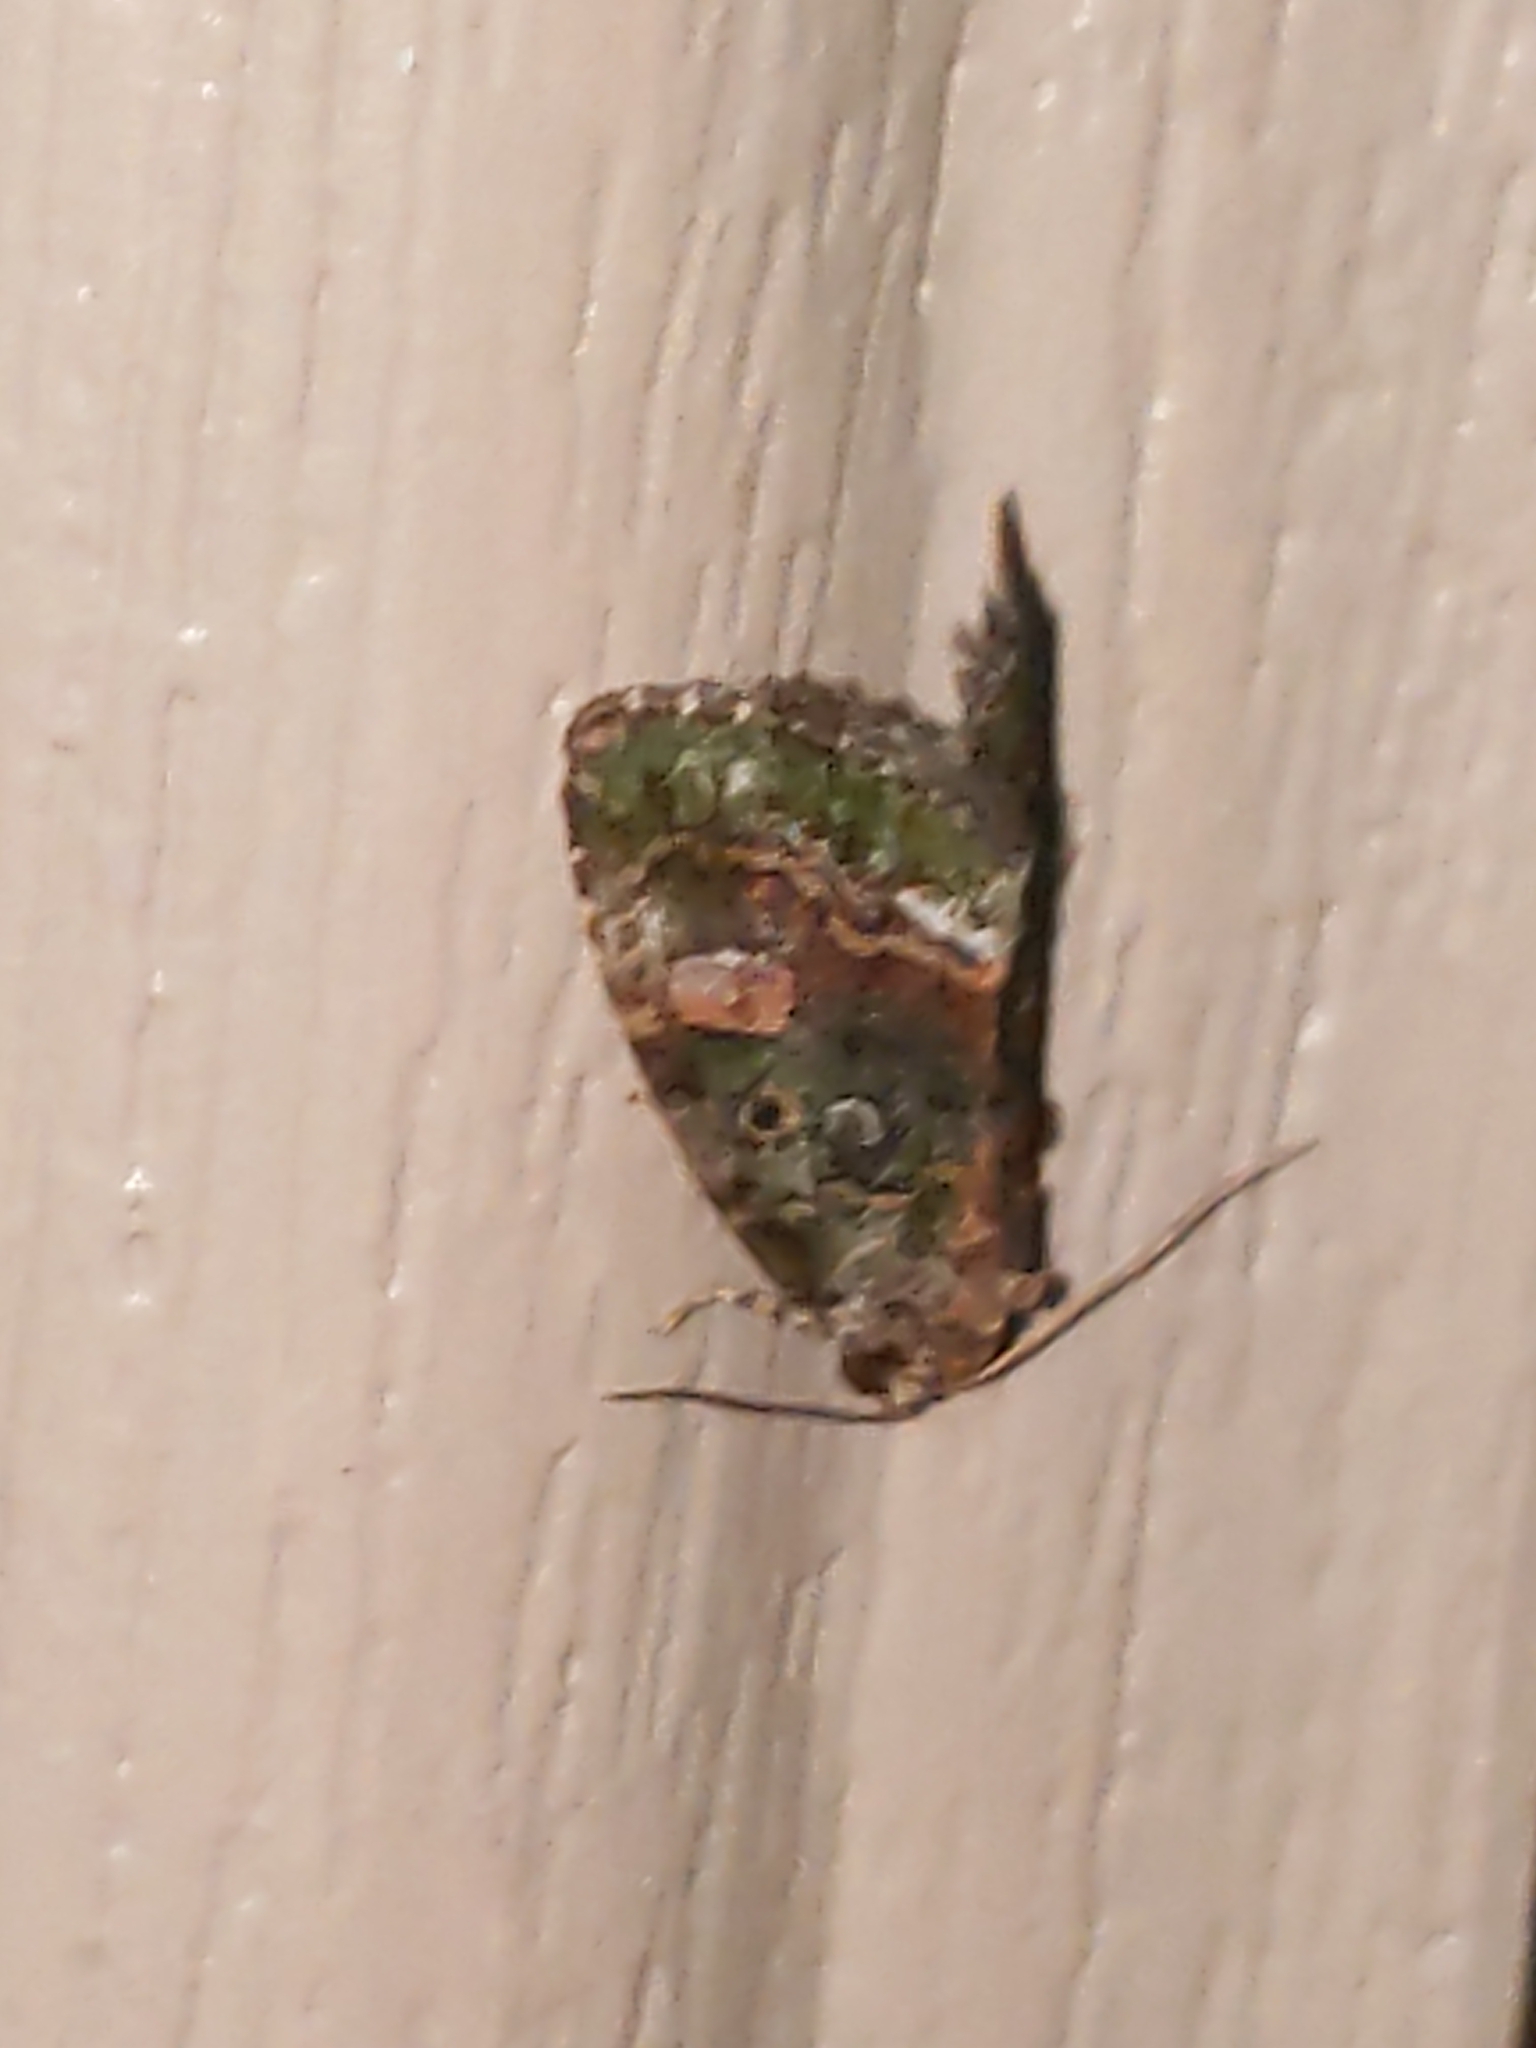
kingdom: Animalia
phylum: Arthropoda
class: Insecta
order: Lepidoptera
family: Noctuidae
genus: Lithacodia
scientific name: Lithacodia musta
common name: Small mossy glyph
